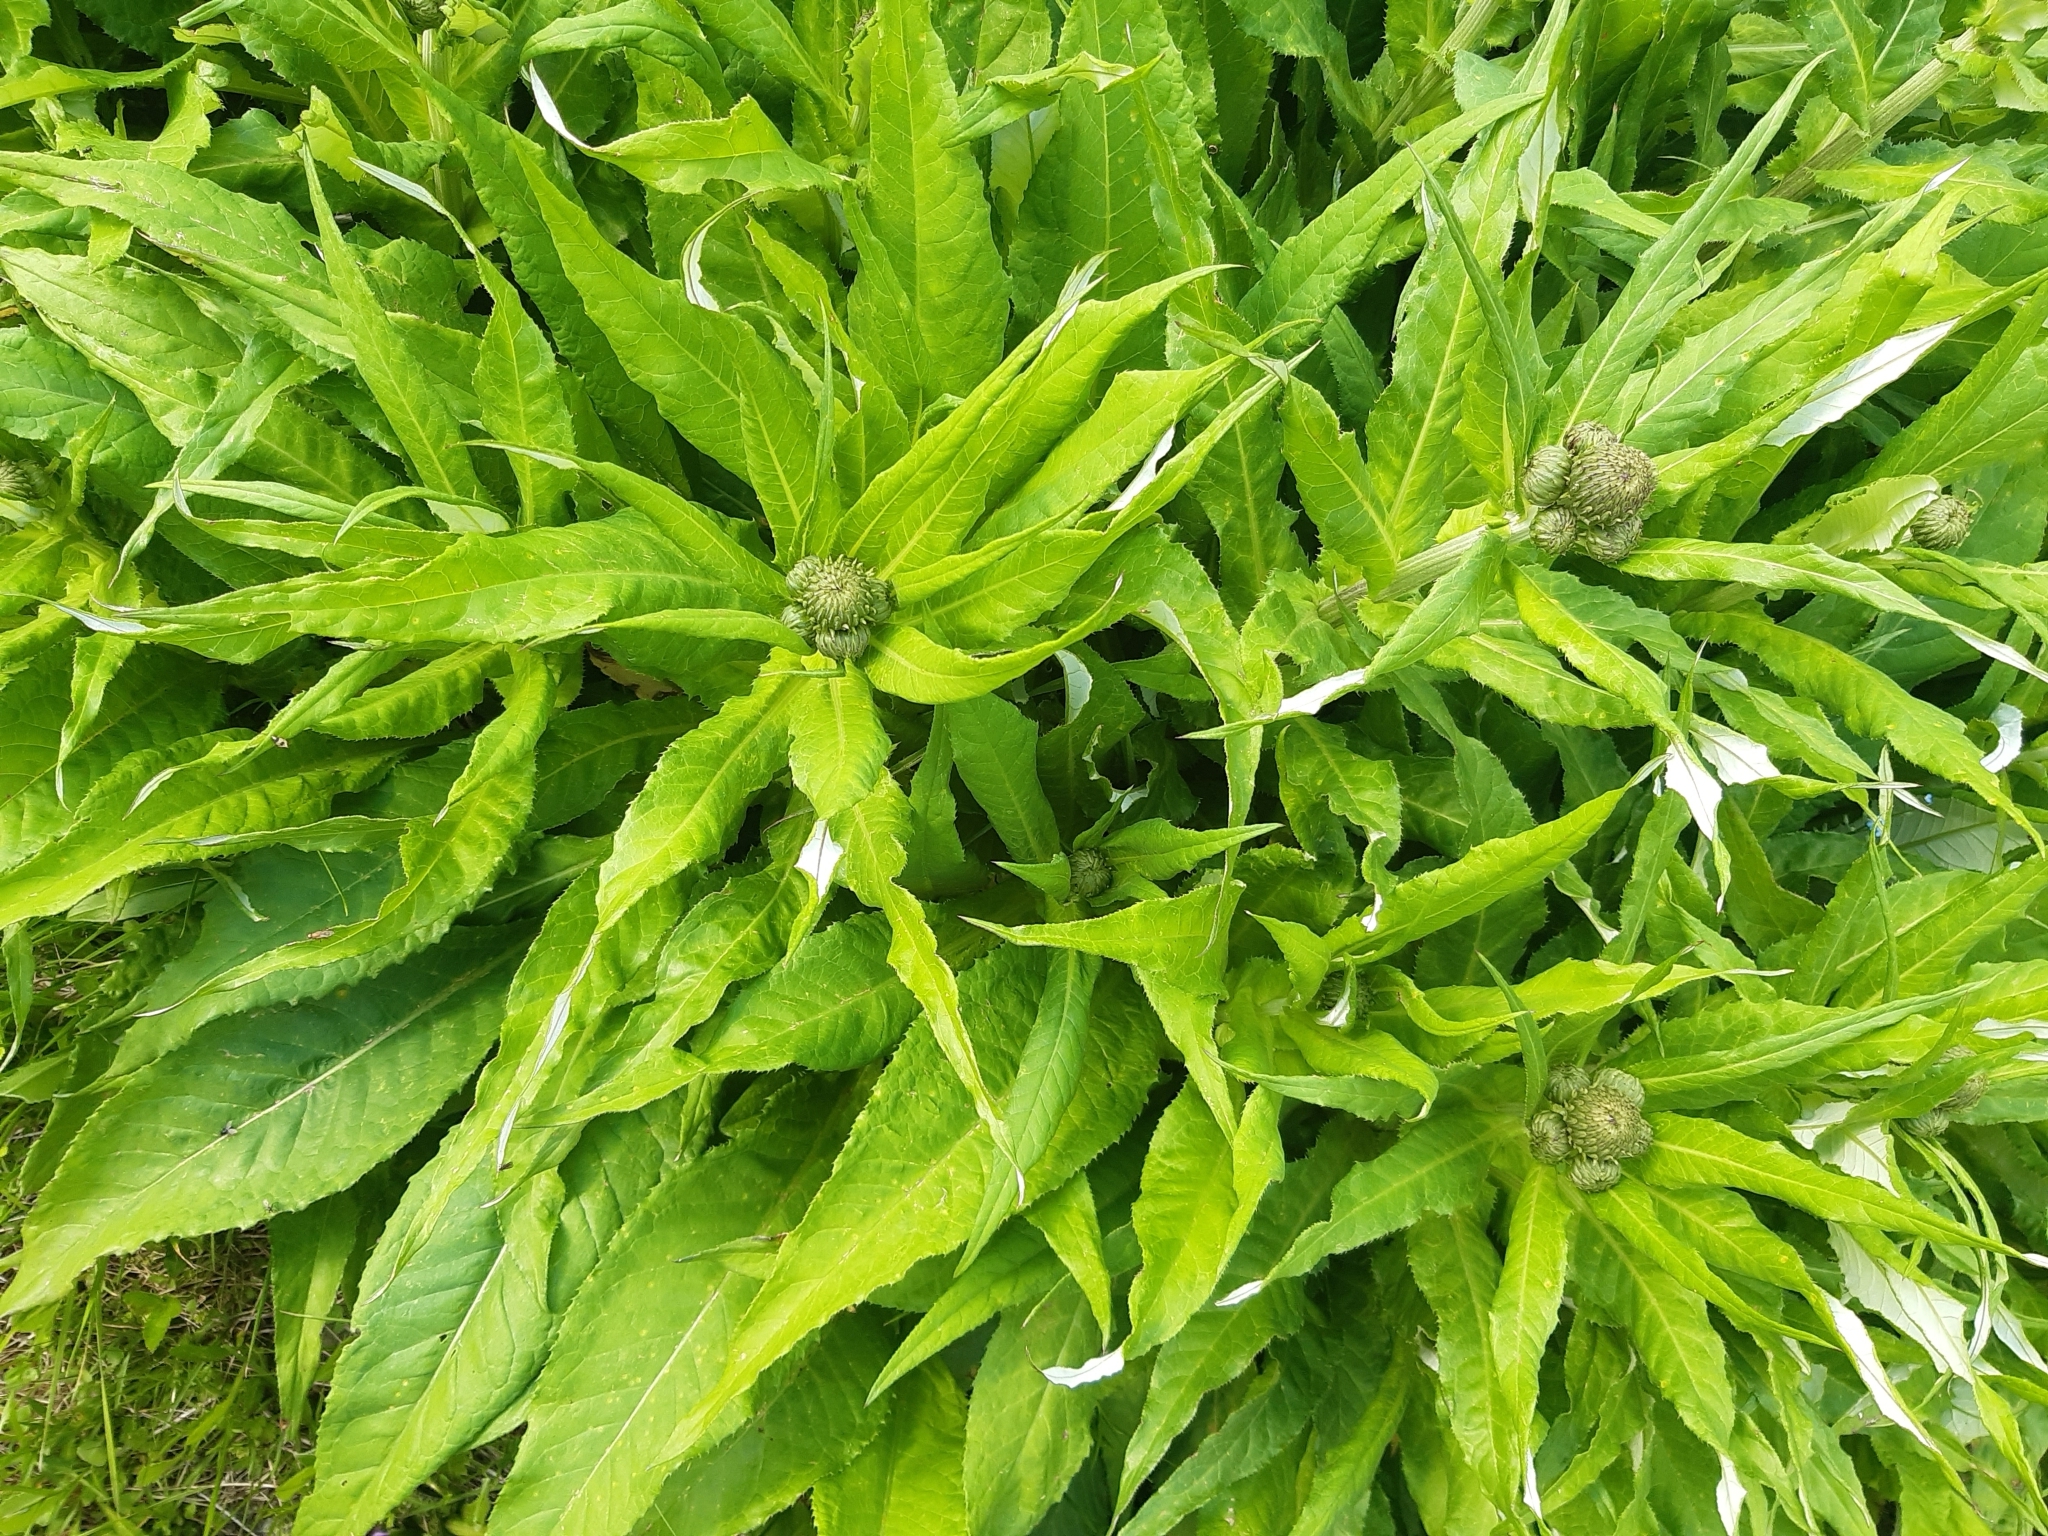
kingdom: Plantae
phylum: Tracheophyta
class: Magnoliopsida
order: Asterales
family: Asteraceae
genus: Cirsium
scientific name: Cirsium heterophyllum
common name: Melancholy thistle
